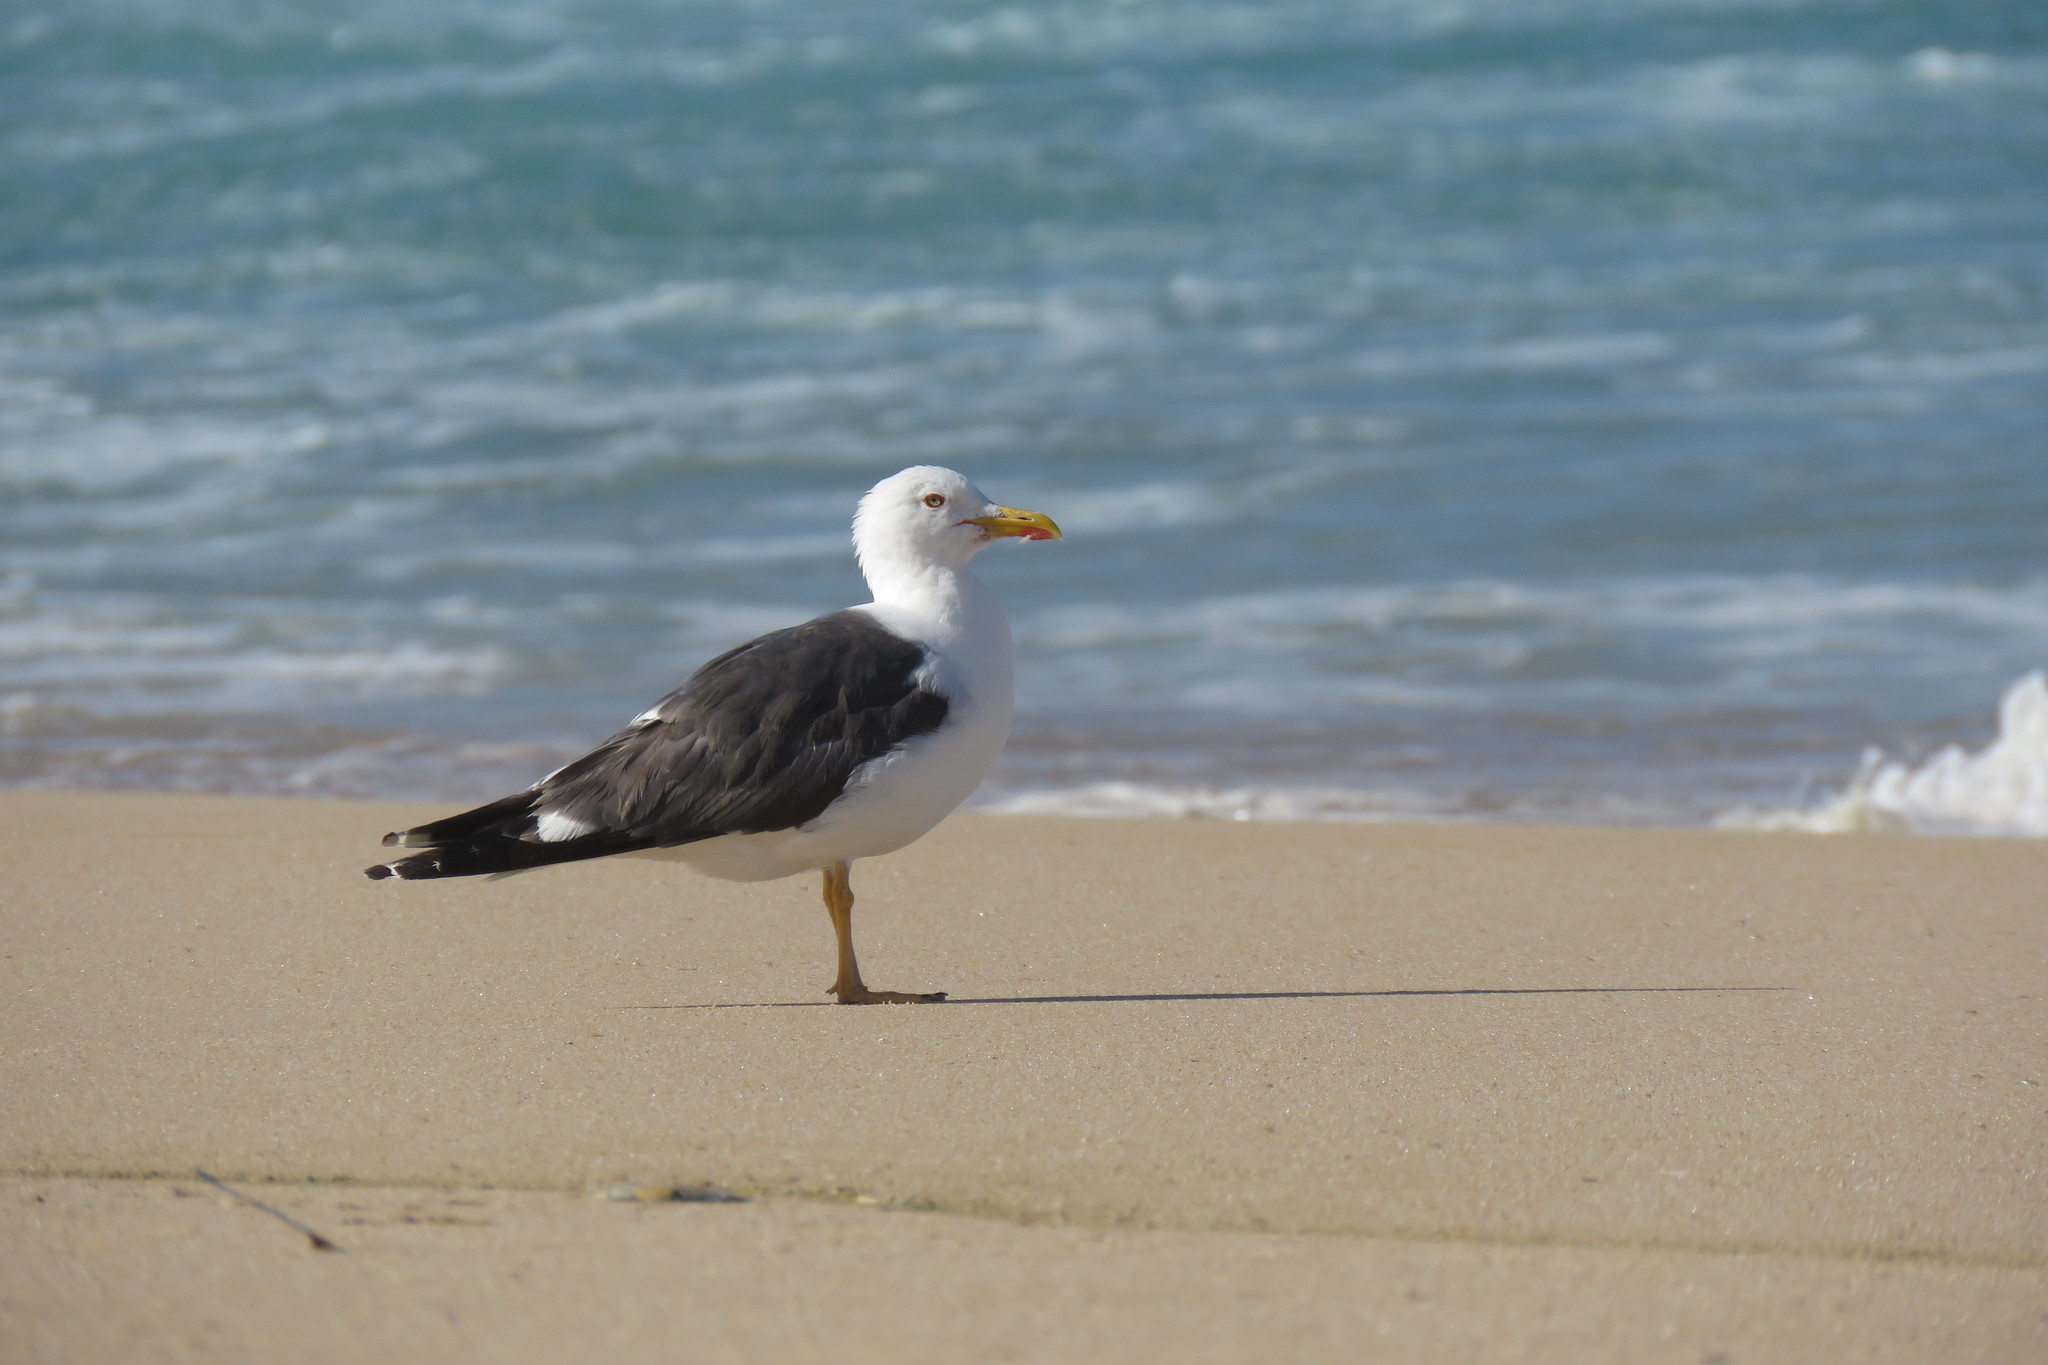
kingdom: Animalia
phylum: Chordata
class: Aves
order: Charadriiformes
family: Laridae
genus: Larus
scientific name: Larus fuscus
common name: Lesser black-backed gull
